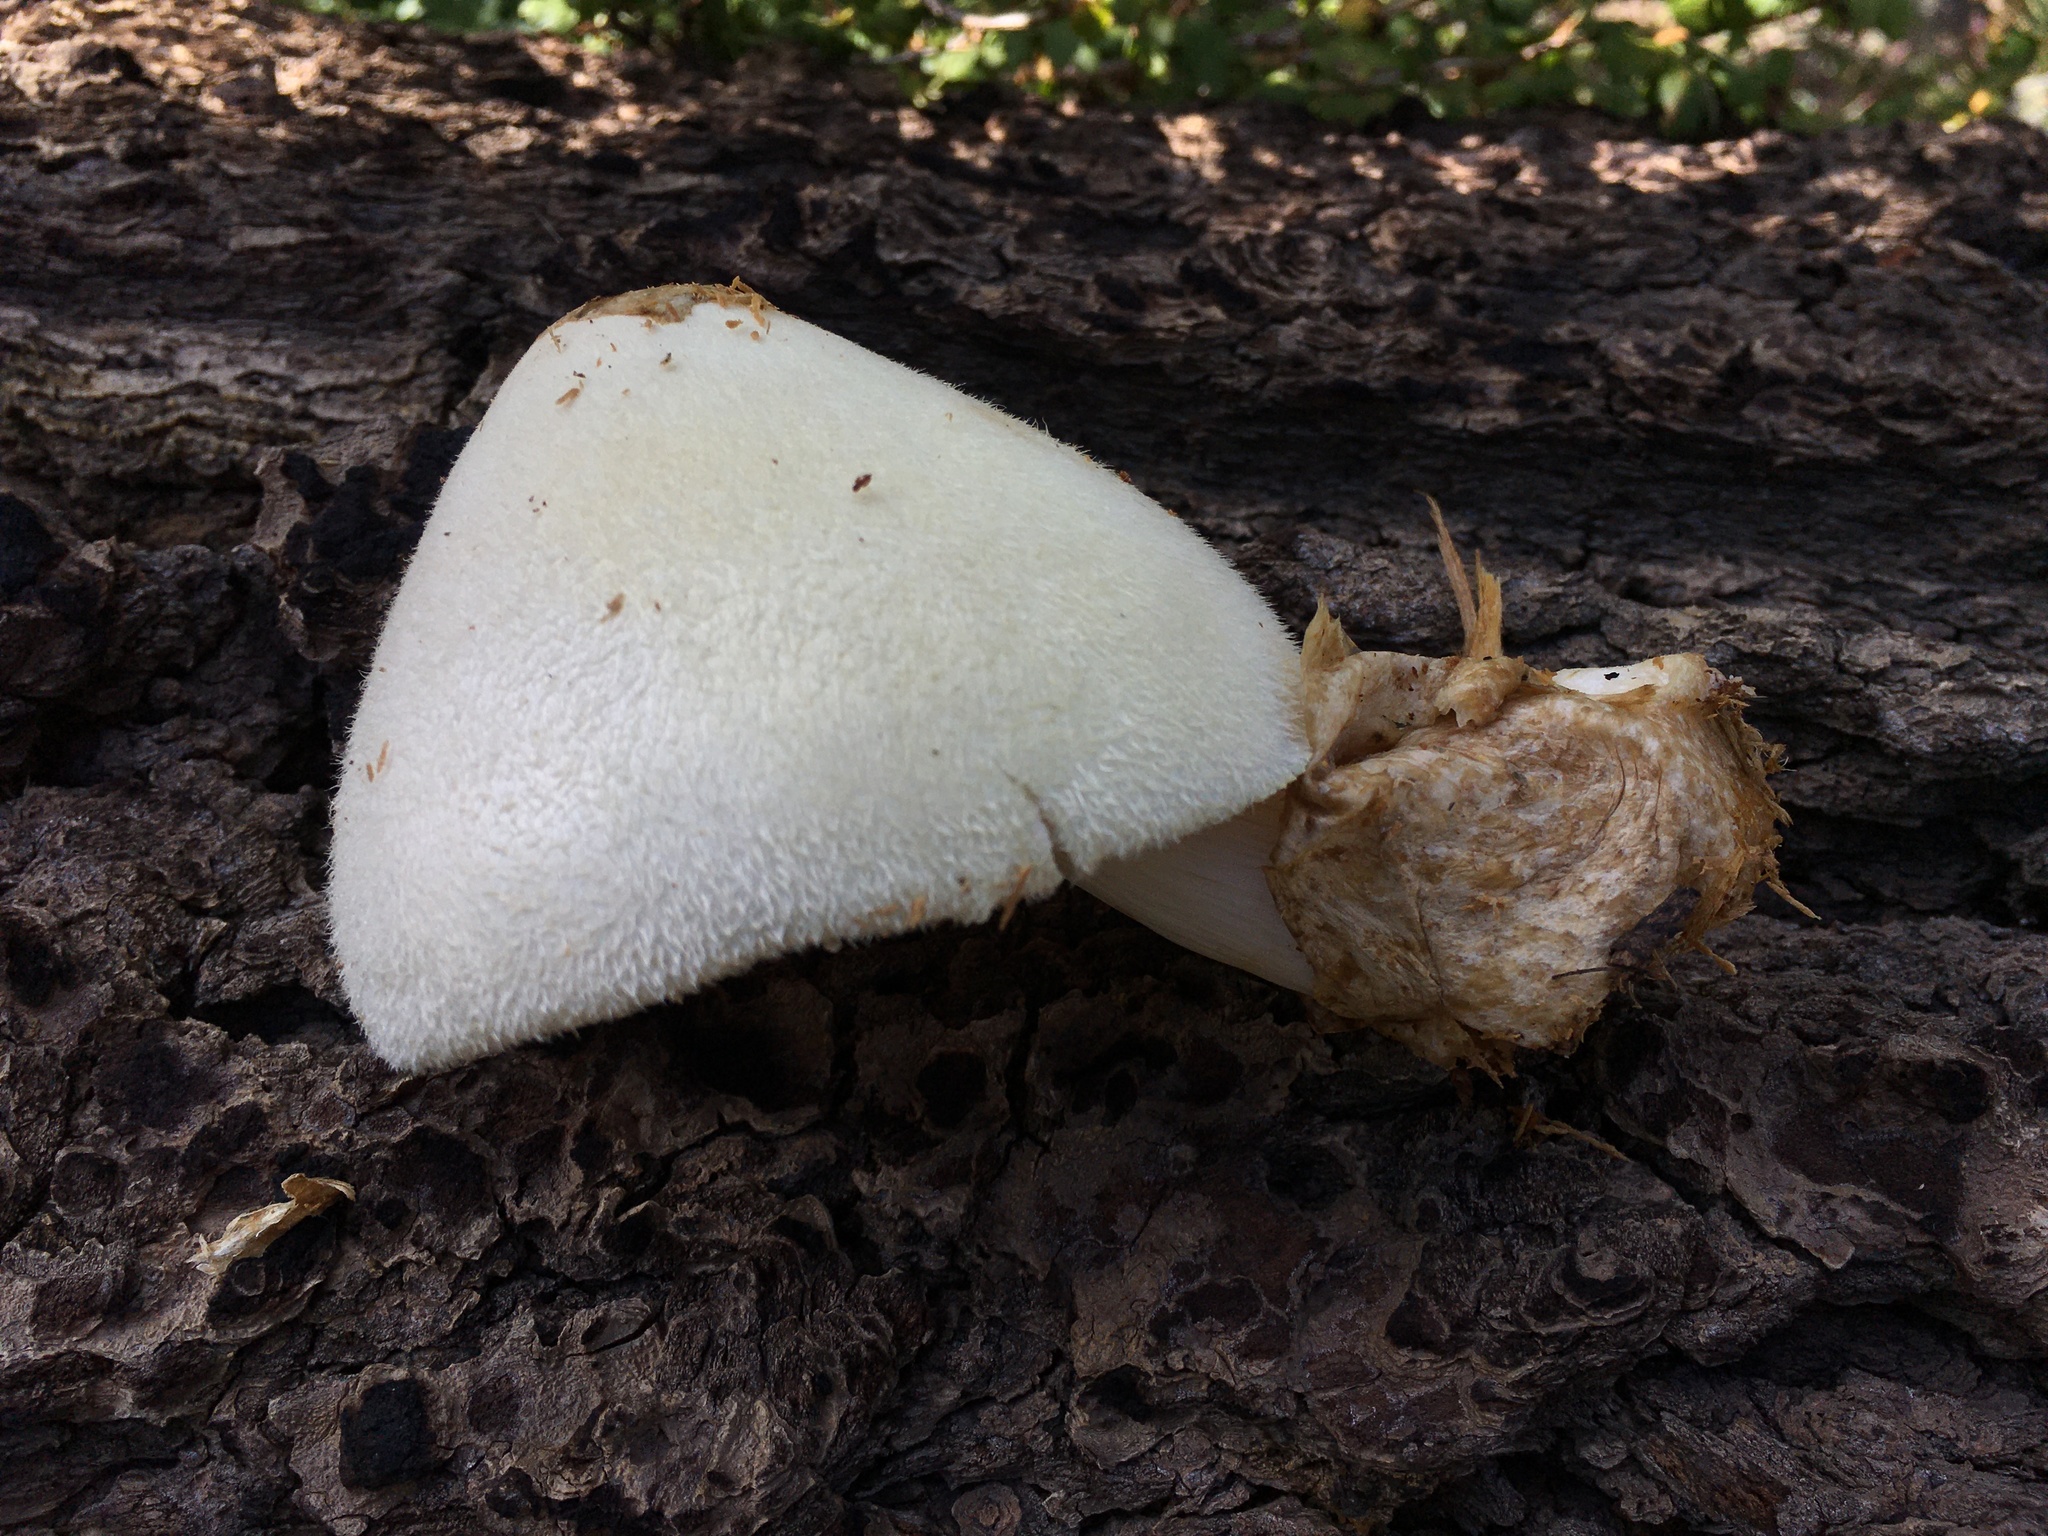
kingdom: Fungi
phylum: Basidiomycota
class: Agaricomycetes
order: Agaricales
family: Pluteaceae
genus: Volvariella
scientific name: Volvariella bombycina
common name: Silky rosegill
